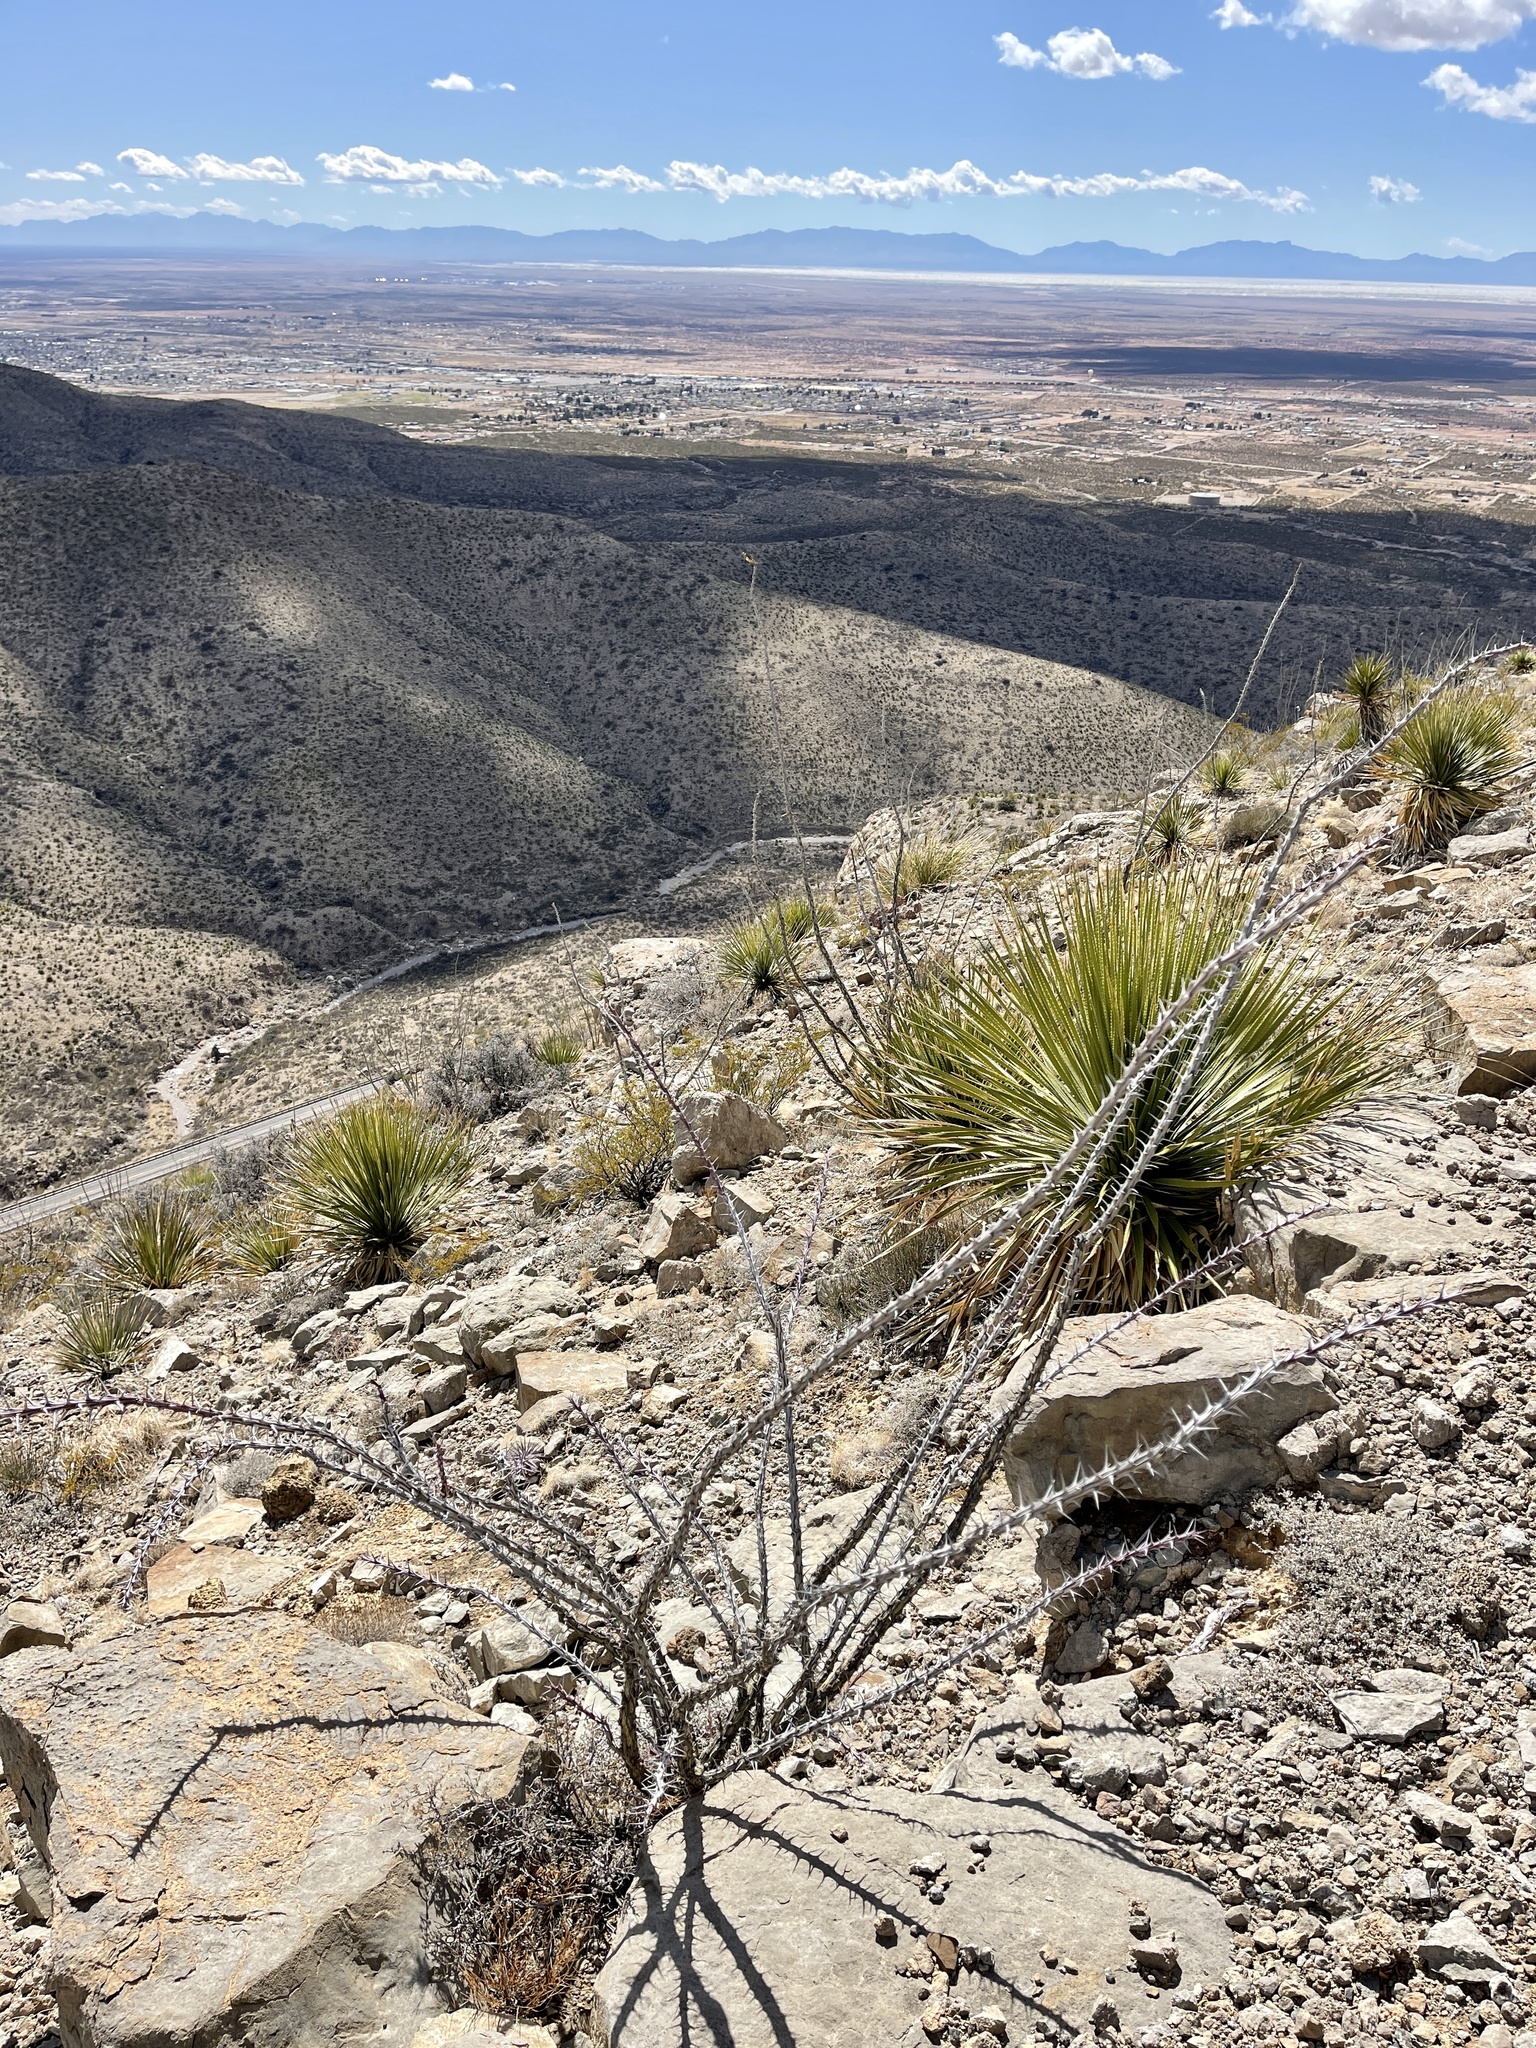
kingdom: Plantae
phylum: Tracheophyta
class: Magnoliopsida
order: Ericales
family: Fouquieriaceae
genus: Fouquieria
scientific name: Fouquieria splendens
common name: Vine-cactus
